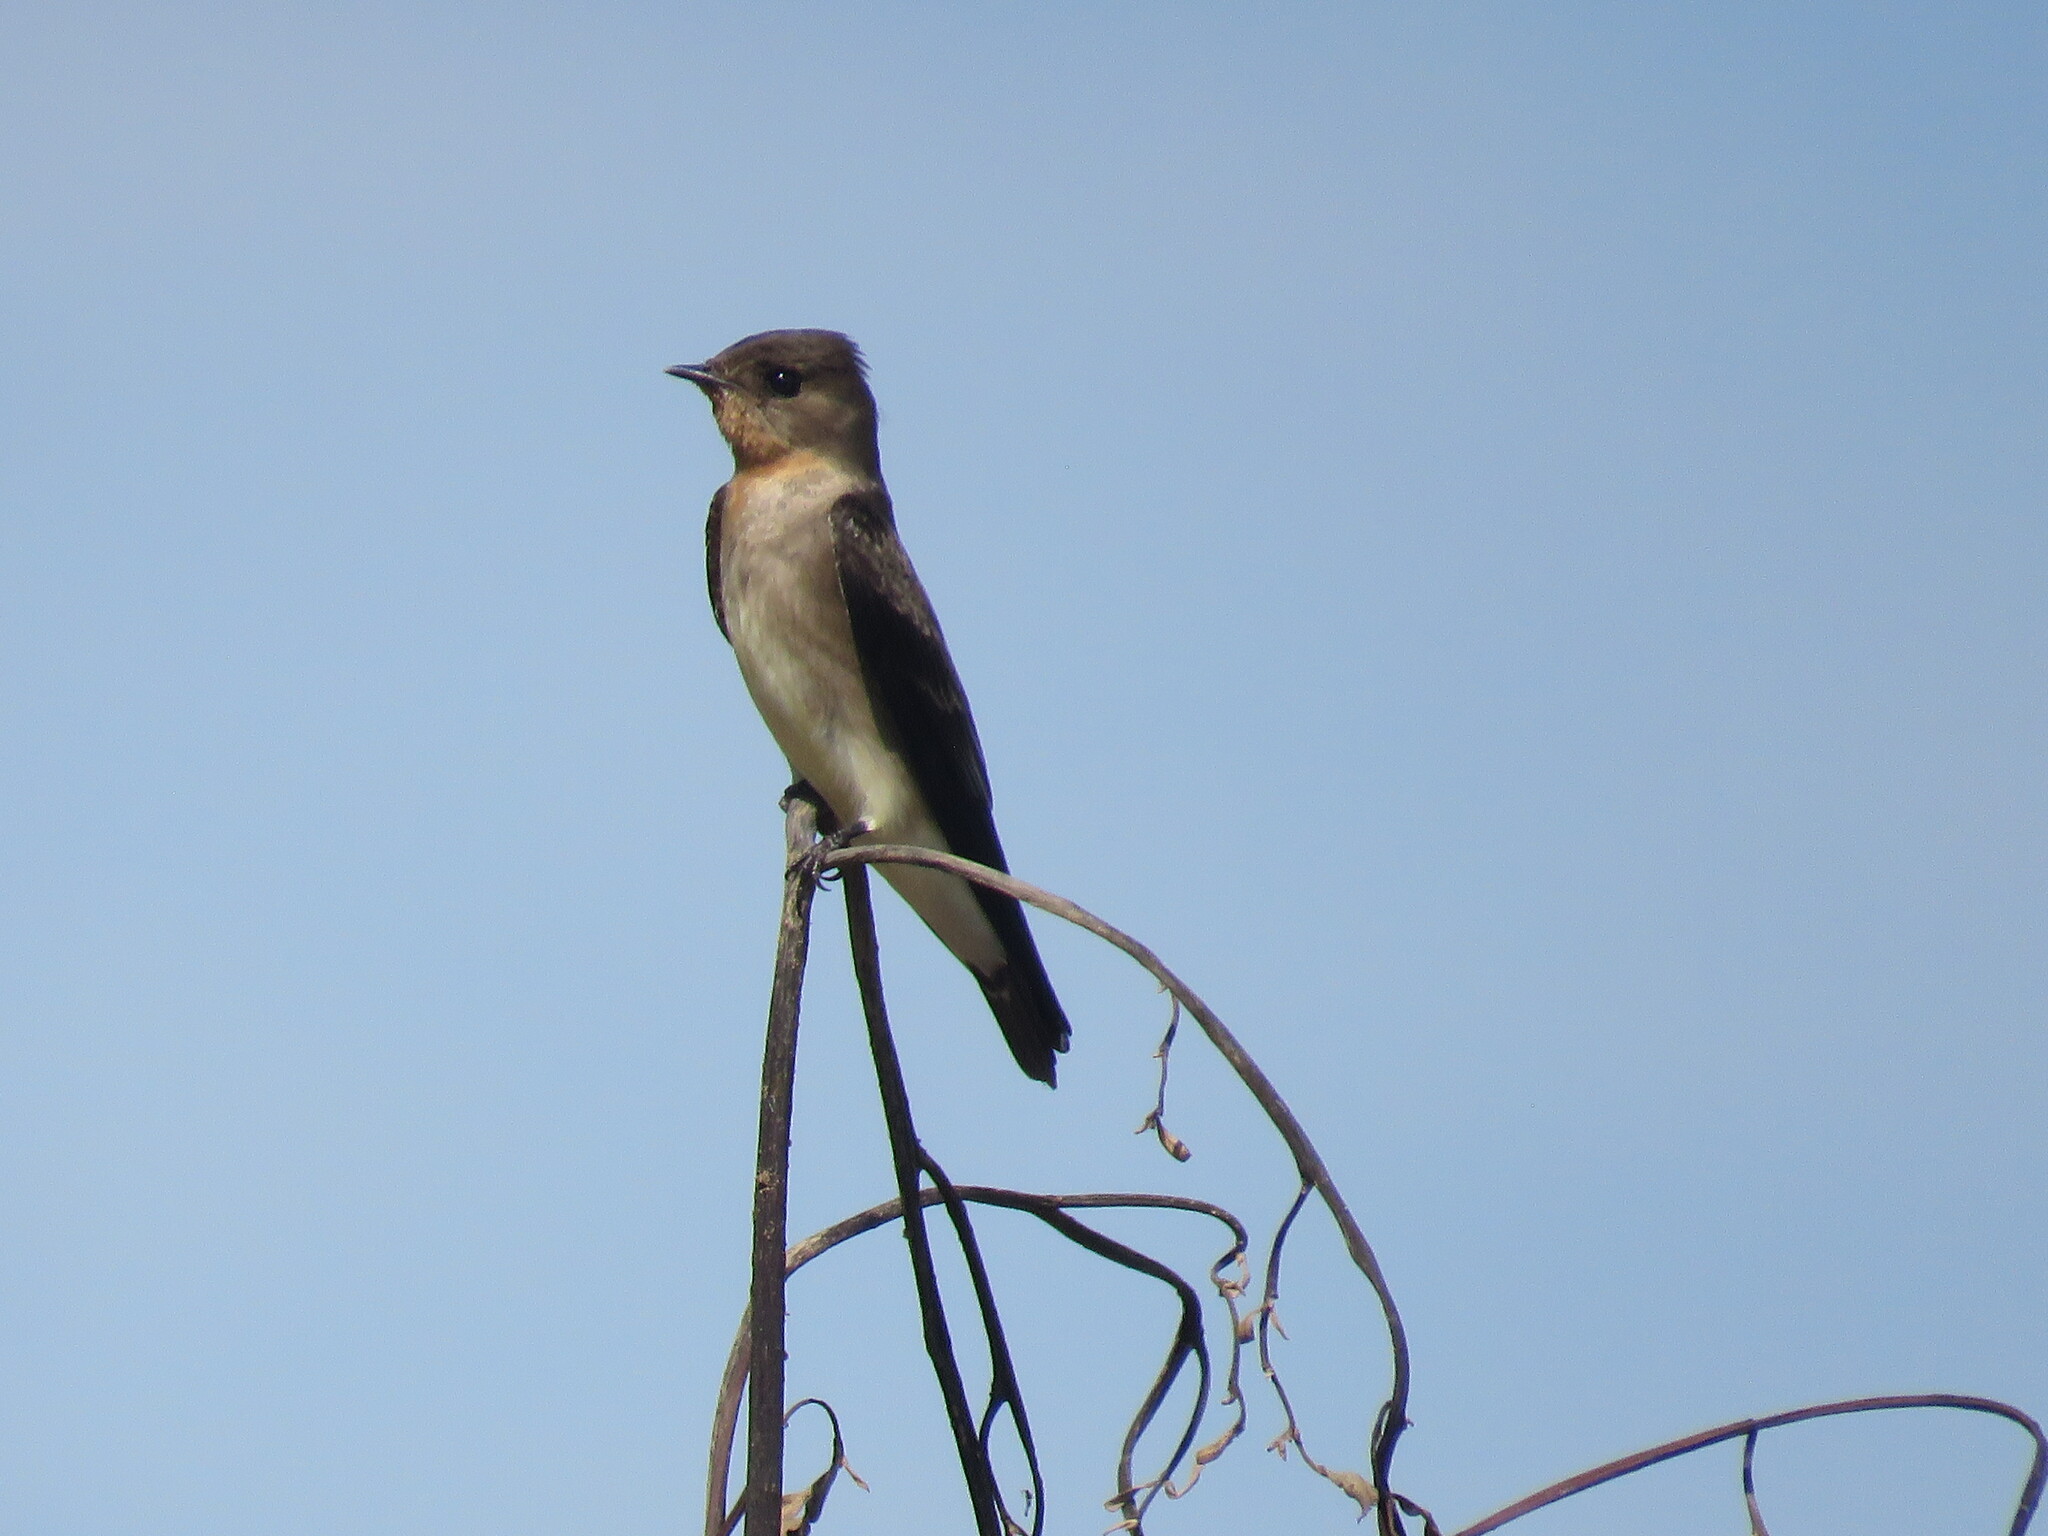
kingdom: Animalia
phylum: Chordata
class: Aves
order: Passeriformes
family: Hirundinidae
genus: Stelgidopteryx
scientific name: Stelgidopteryx ruficollis
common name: Southern rough-winged swallow
